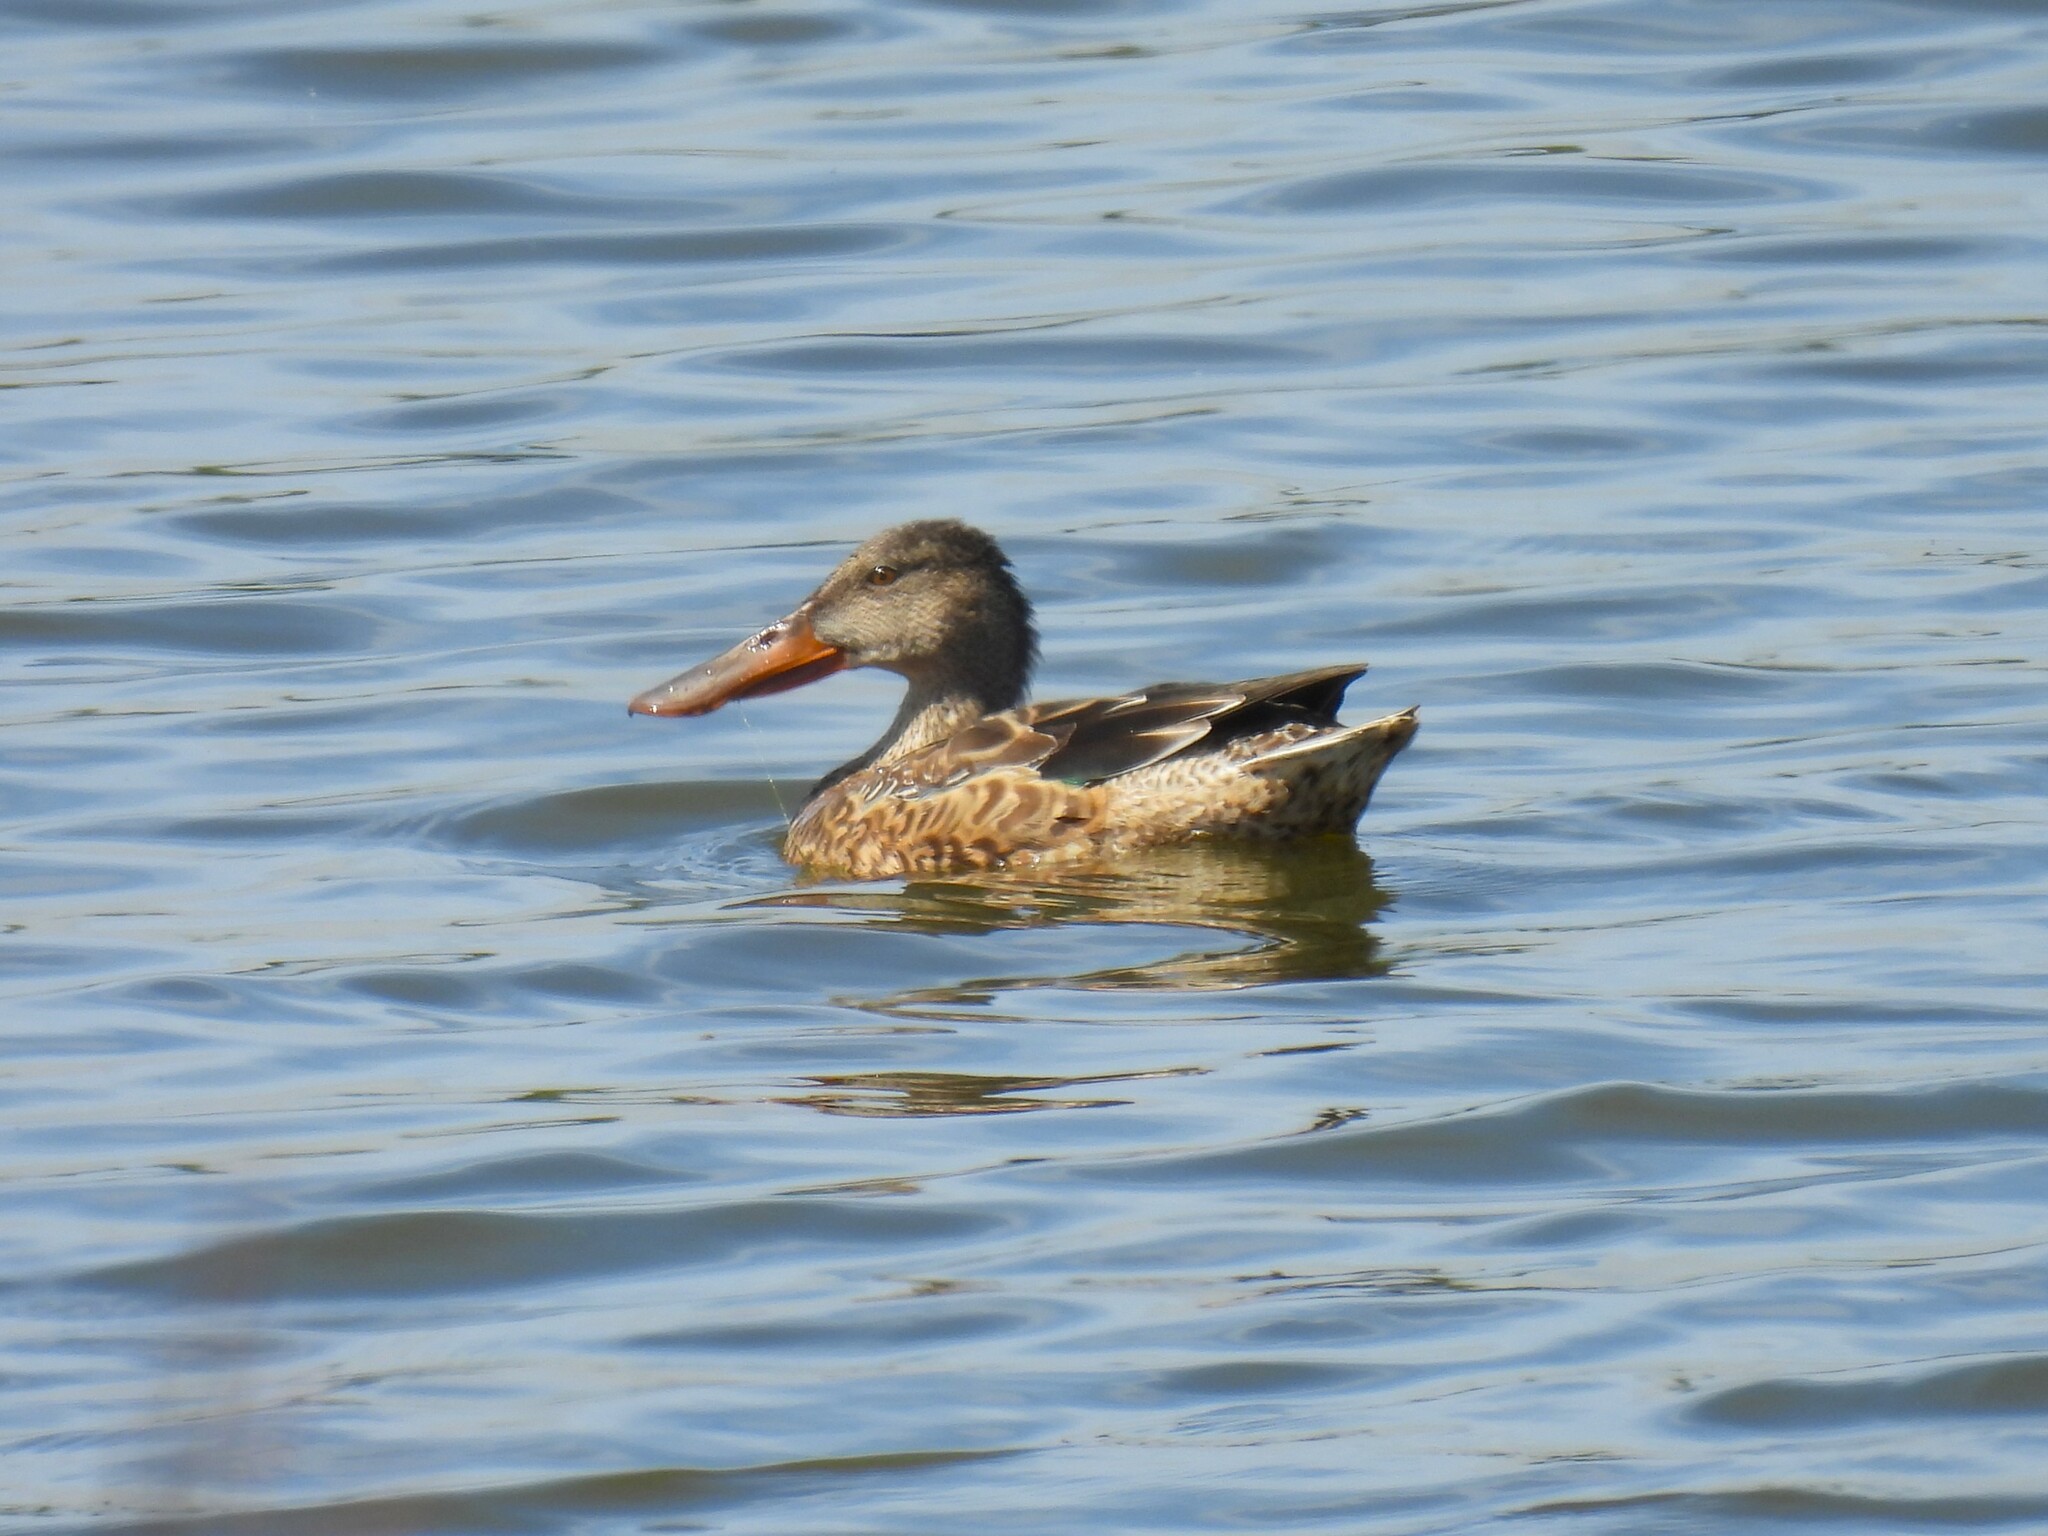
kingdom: Animalia
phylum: Chordata
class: Aves
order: Anseriformes
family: Anatidae
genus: Spatula
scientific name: Spatula clypeata
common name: Northern shoveler
